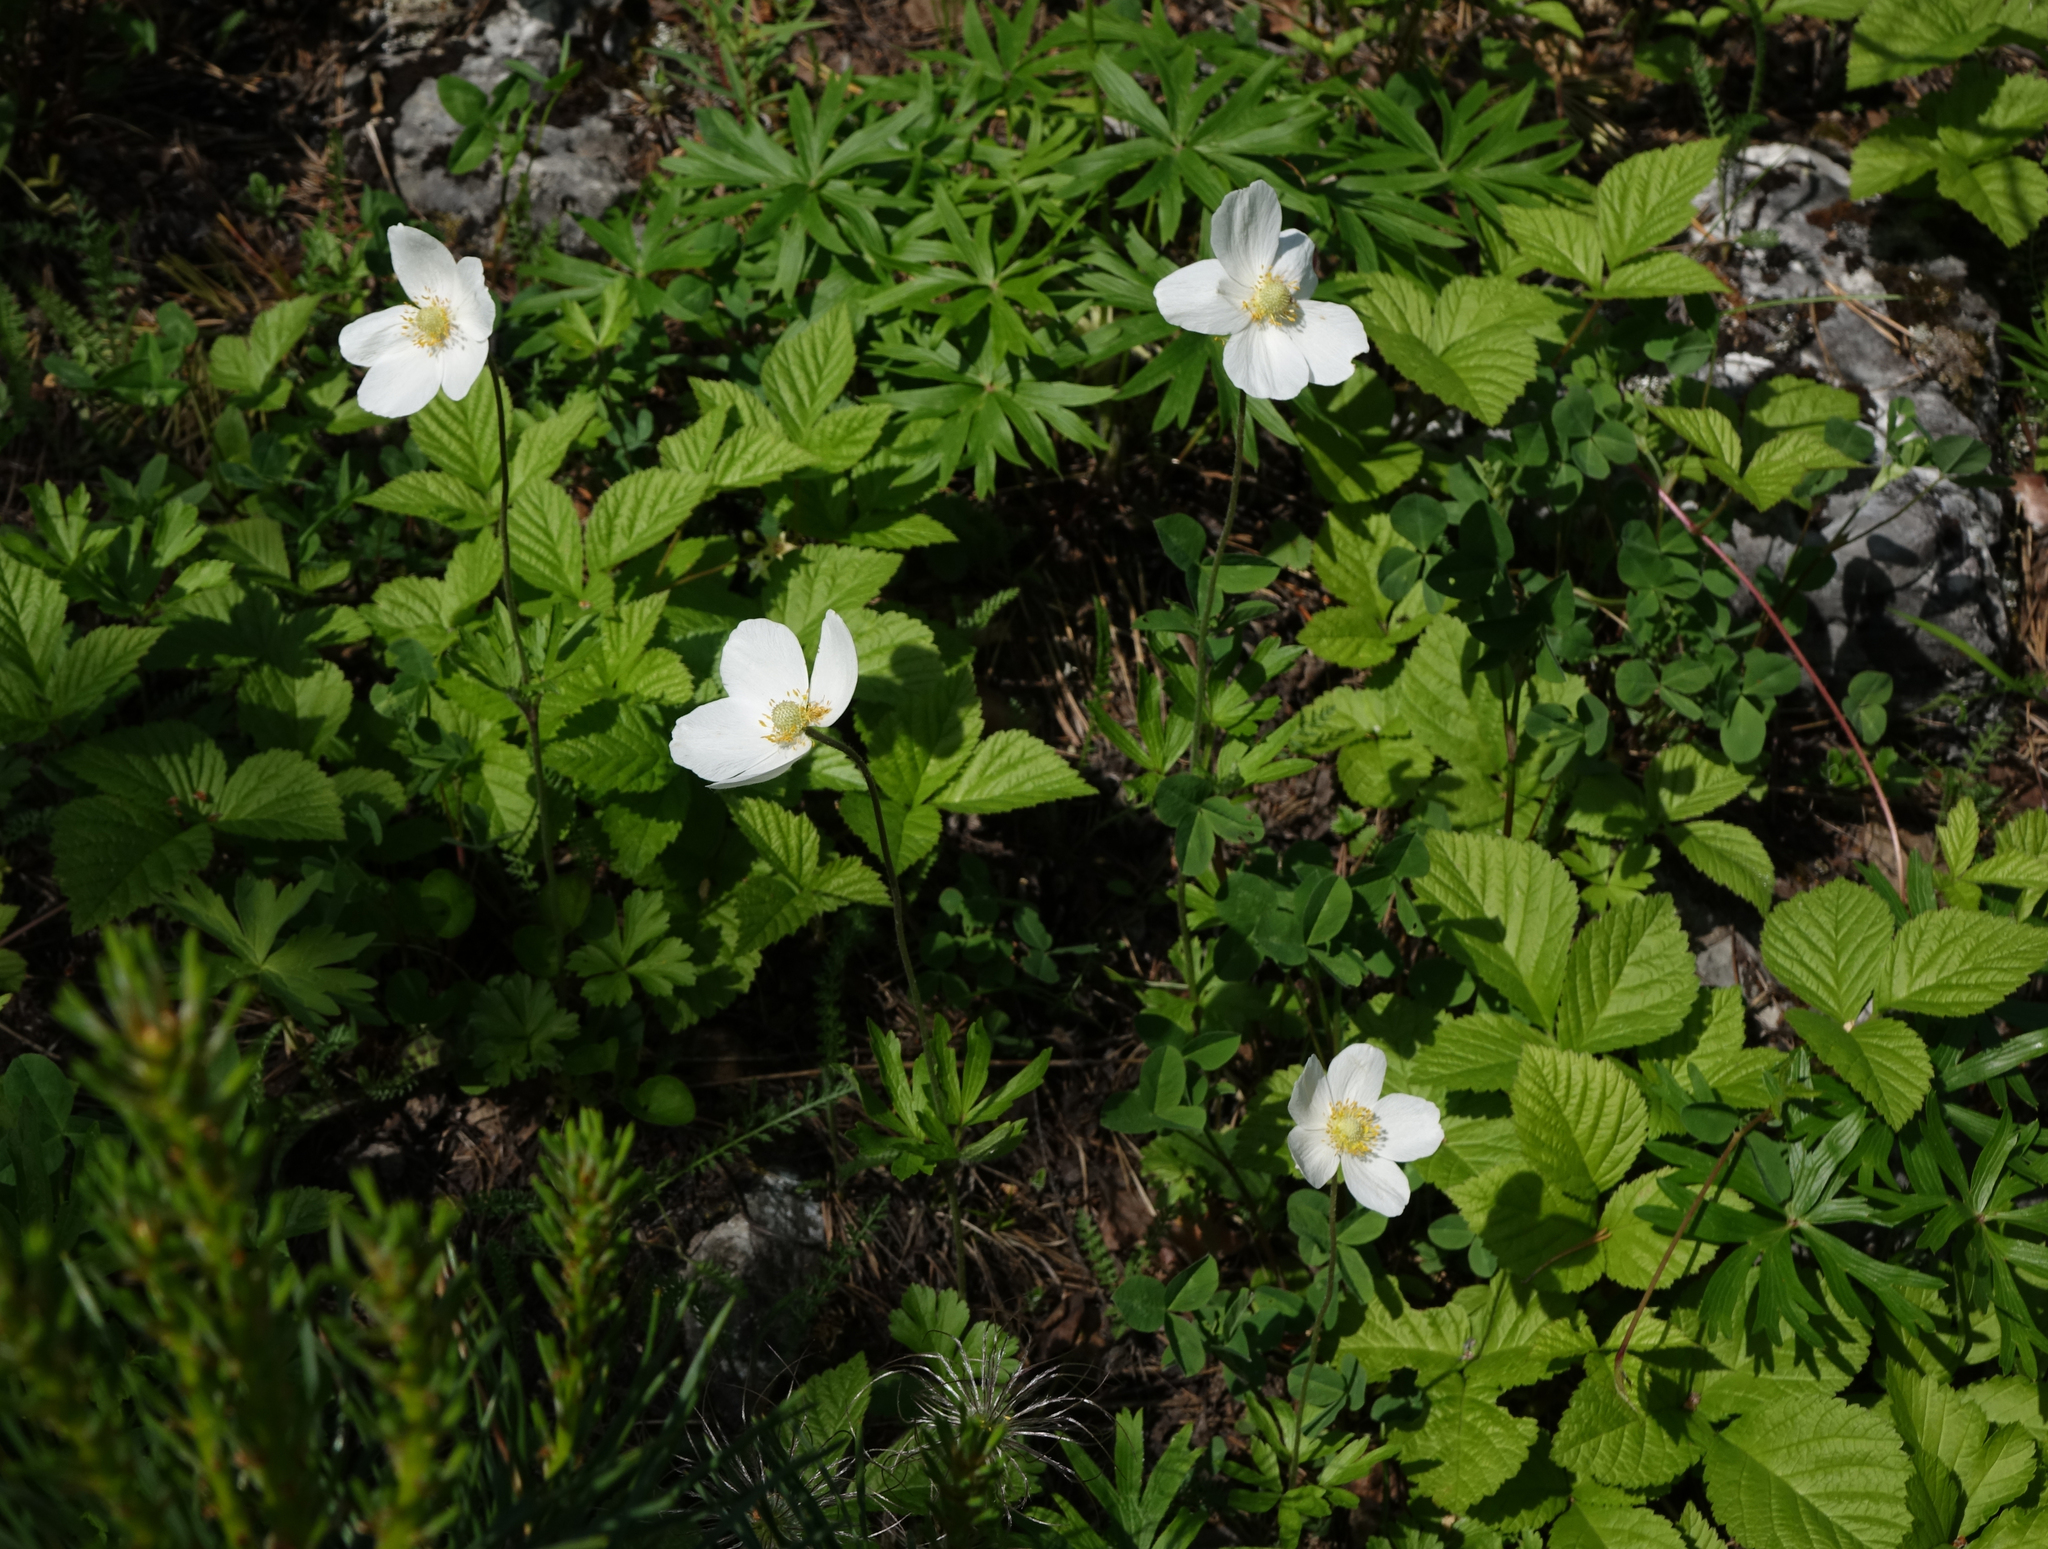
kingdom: Plantae
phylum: Tracheophyta
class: Magnoliopsida
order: Ranunculales
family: Ranunculaceae
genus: Anemone
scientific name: Anemone sylvestris
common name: Snowdrop anemone
